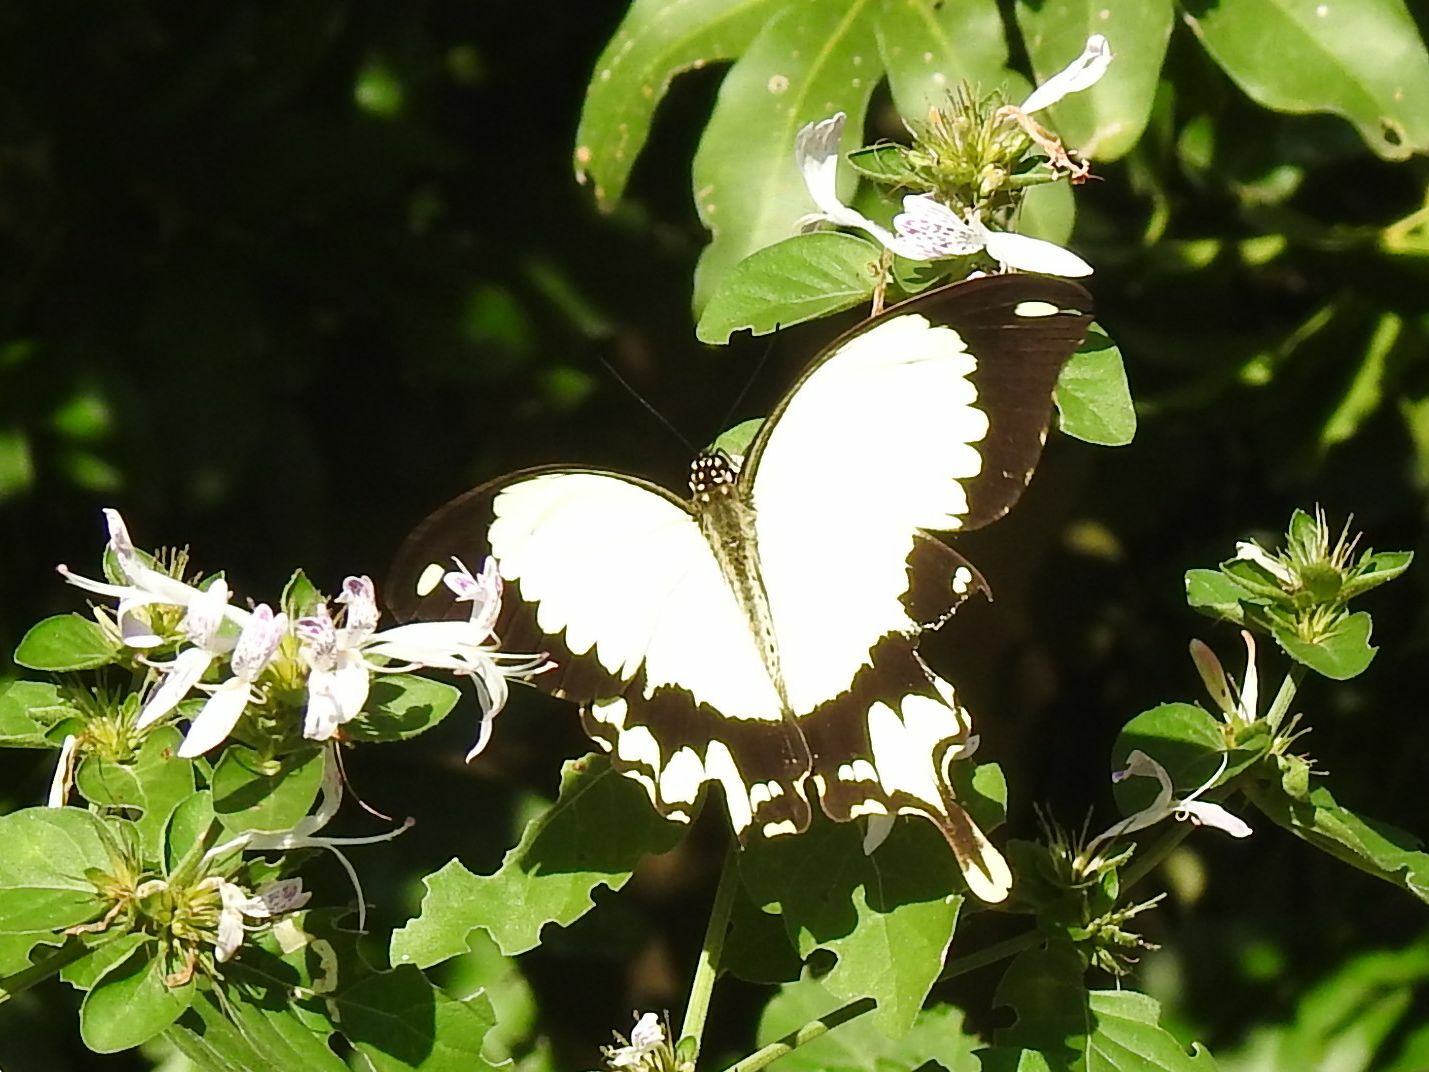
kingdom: Animalia
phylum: Arthropoda
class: Insecta
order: Lepidoptera
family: Papilionidae
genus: Papilio
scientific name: Papilio dardanus
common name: Flying handkerchief
